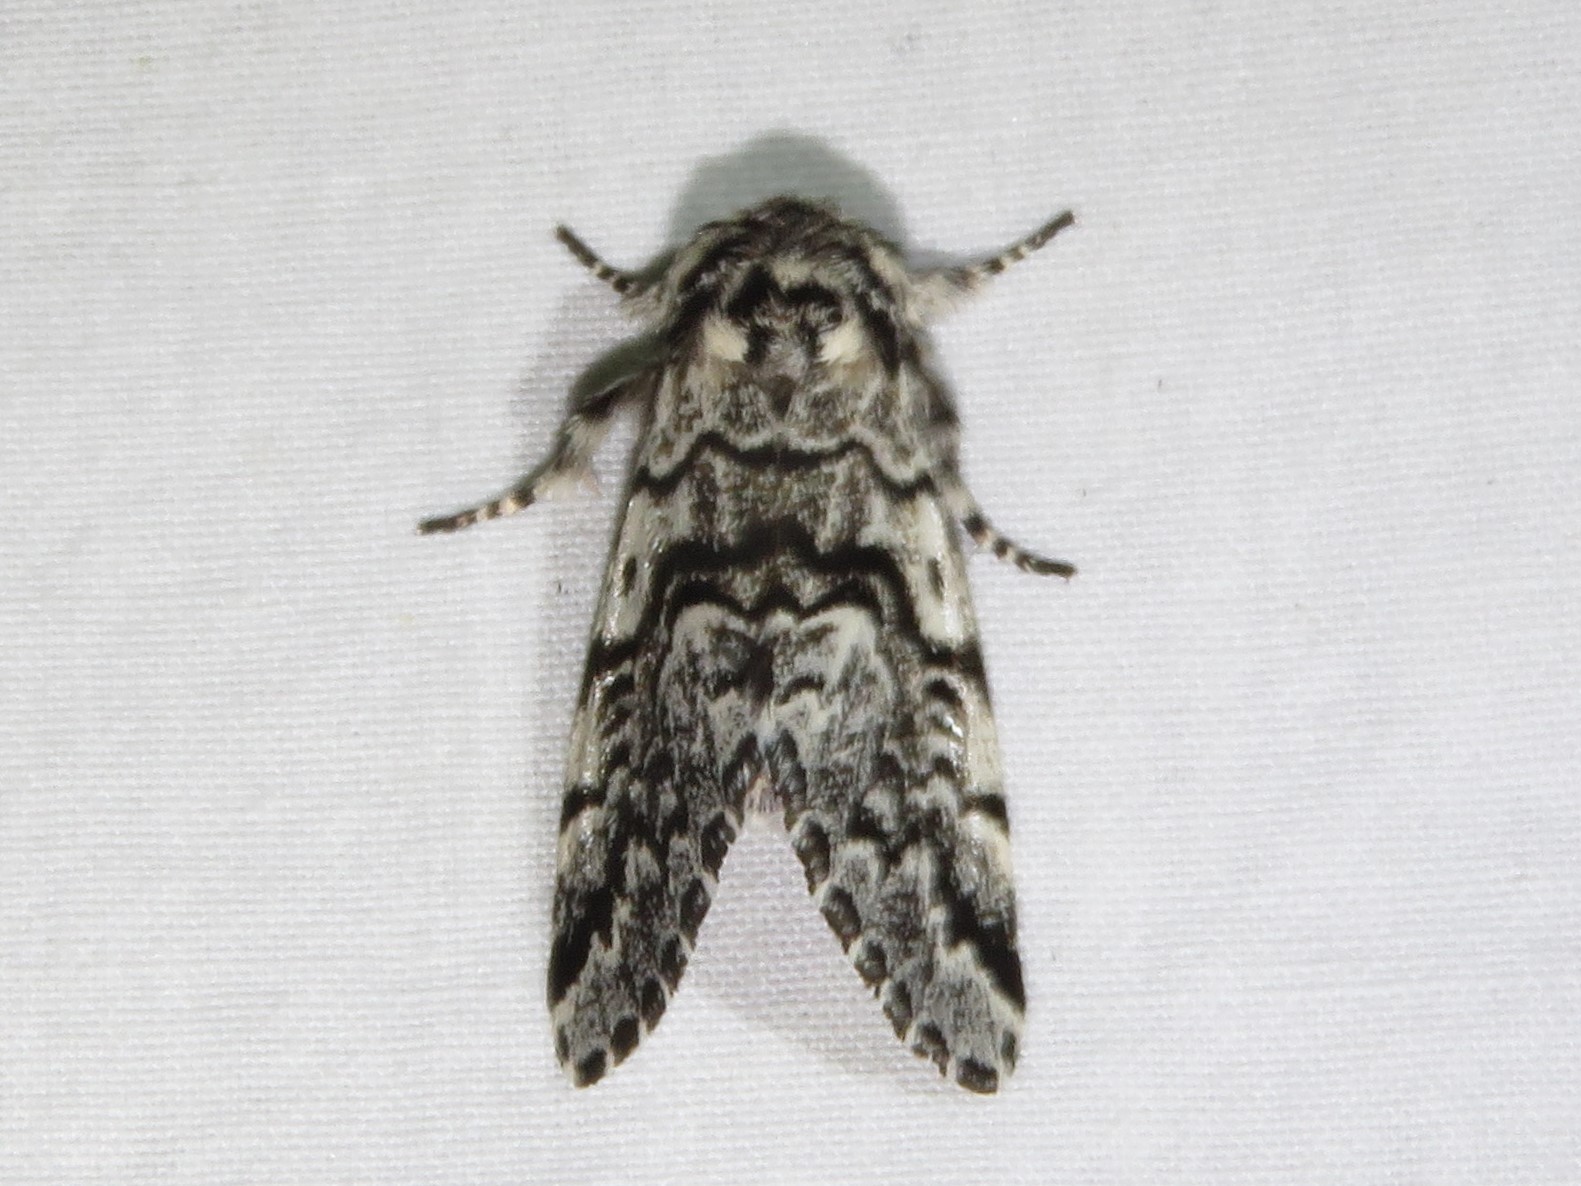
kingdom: Animalia
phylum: Arthropoda
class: Insecta
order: Lepidoptera
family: Noctuidae
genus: Panthea
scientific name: Panthea acronyctoides
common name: Black zigzag moth
